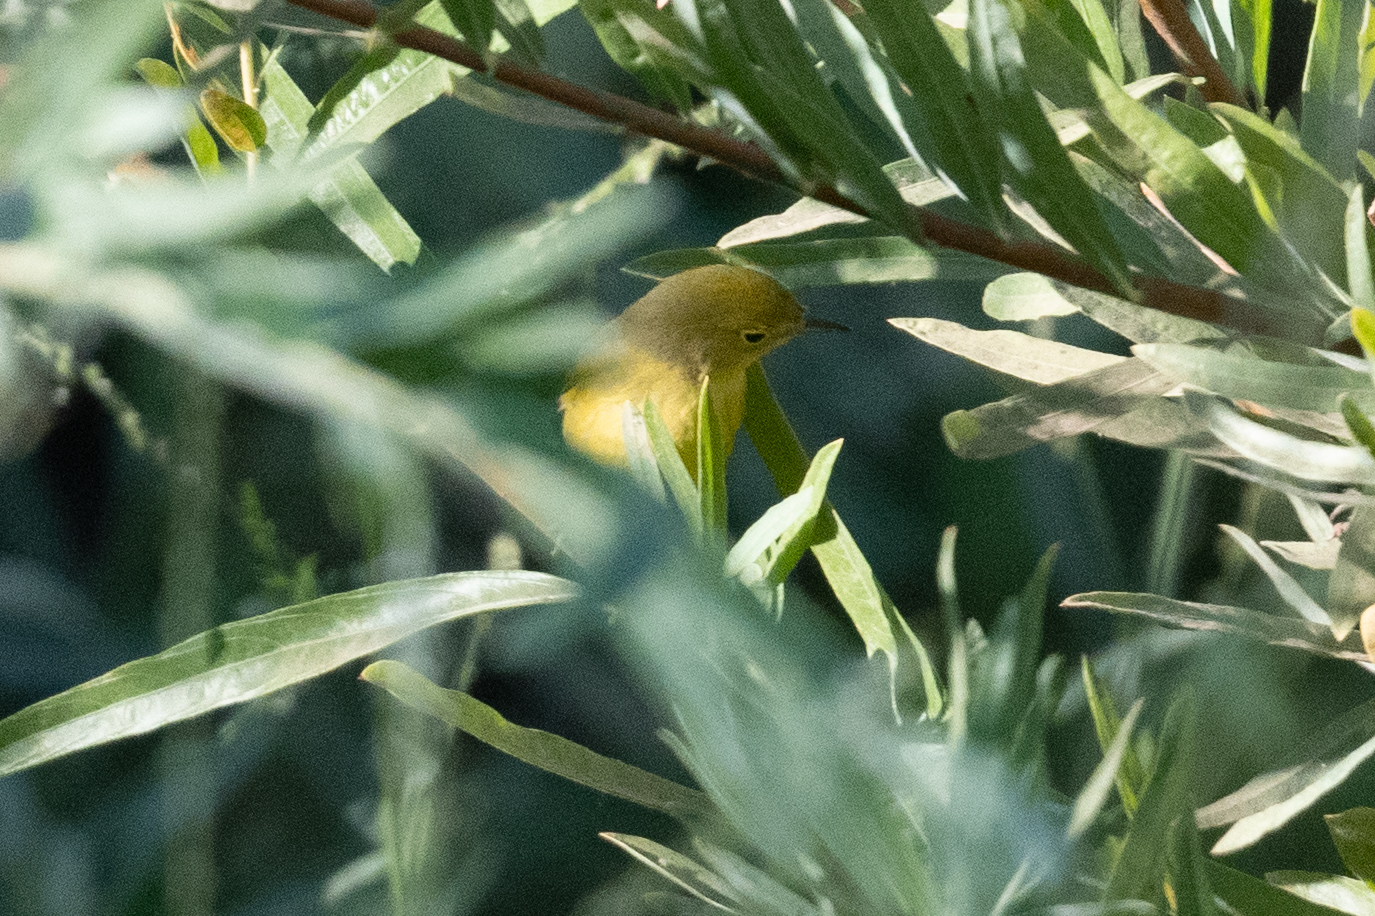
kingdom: Animalia
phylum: Chordata
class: Aves
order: Passeriformes
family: Parulidae
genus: Setophaga
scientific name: Setophaga petechia
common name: Yellow warbler
